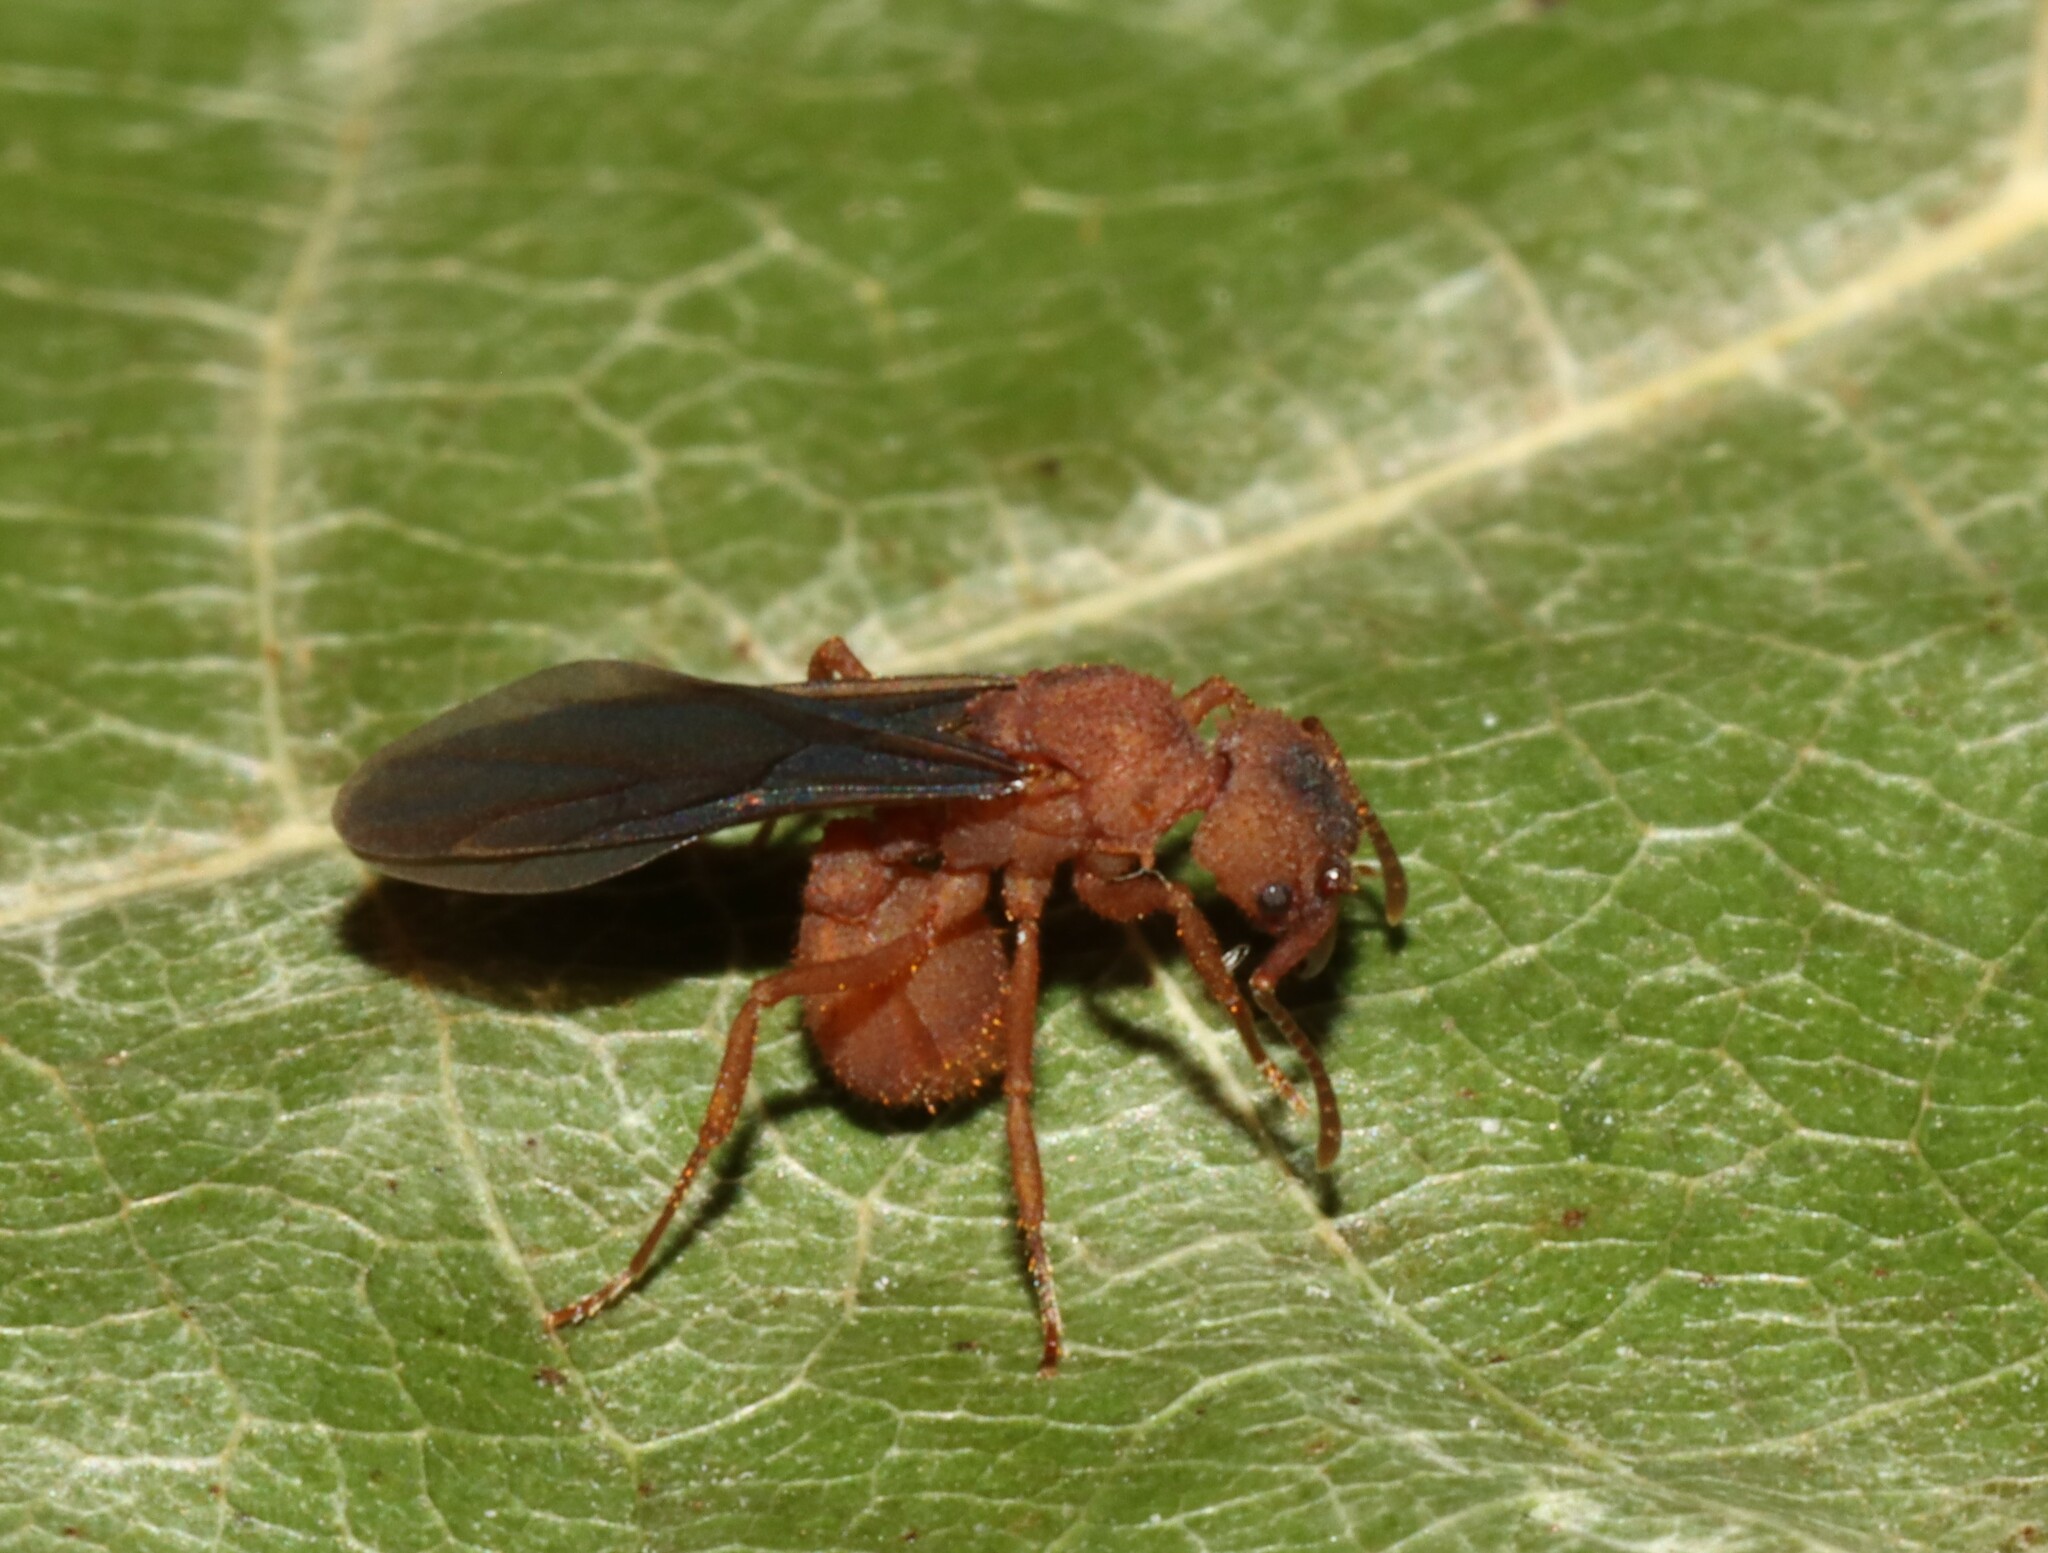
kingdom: Animalia
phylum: Arthropoda
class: Insecta
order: Hymenoptera
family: Formicidae
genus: Trachymyrmex
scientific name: Trachymyrmex septentrionalis
